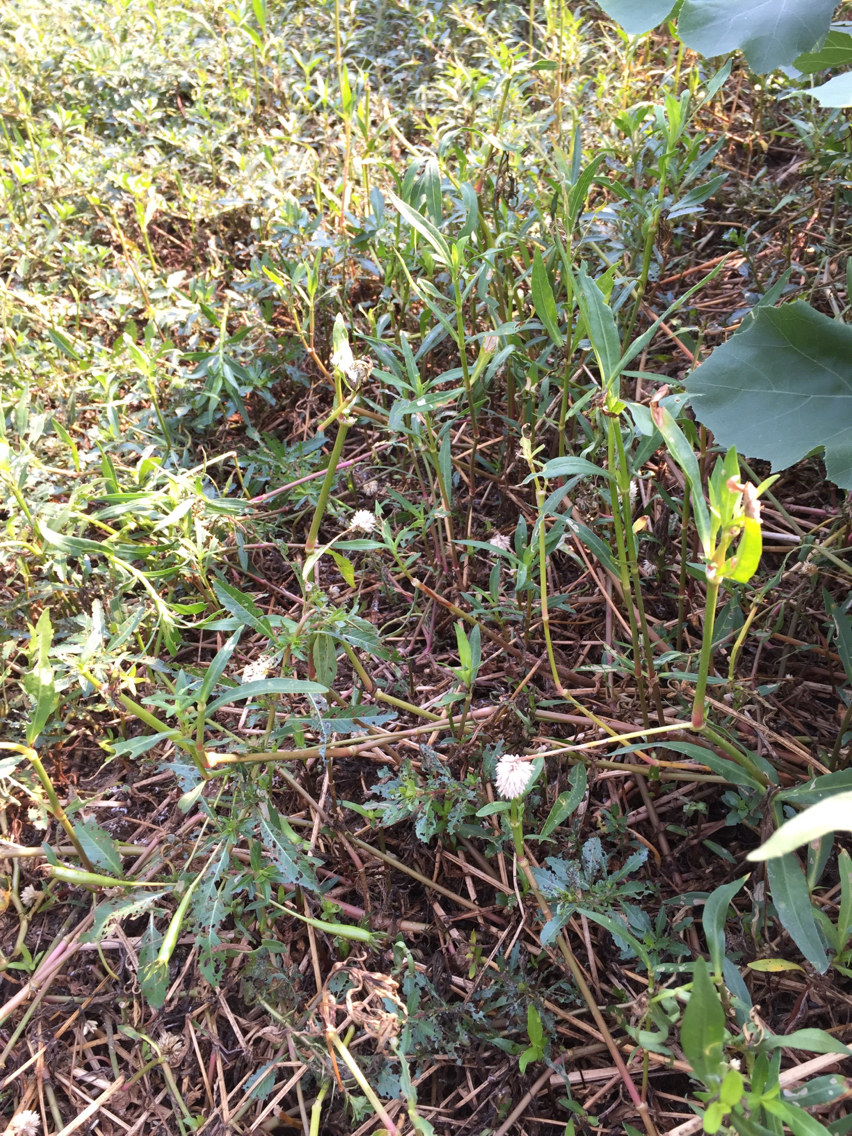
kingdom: Plantae
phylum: Tracheophyta
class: Magnoliopsida
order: Caryophyllales
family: Amaranthaceae
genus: Alternanthera
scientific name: Alternanthera philoxeroides
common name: Alligatorweed
